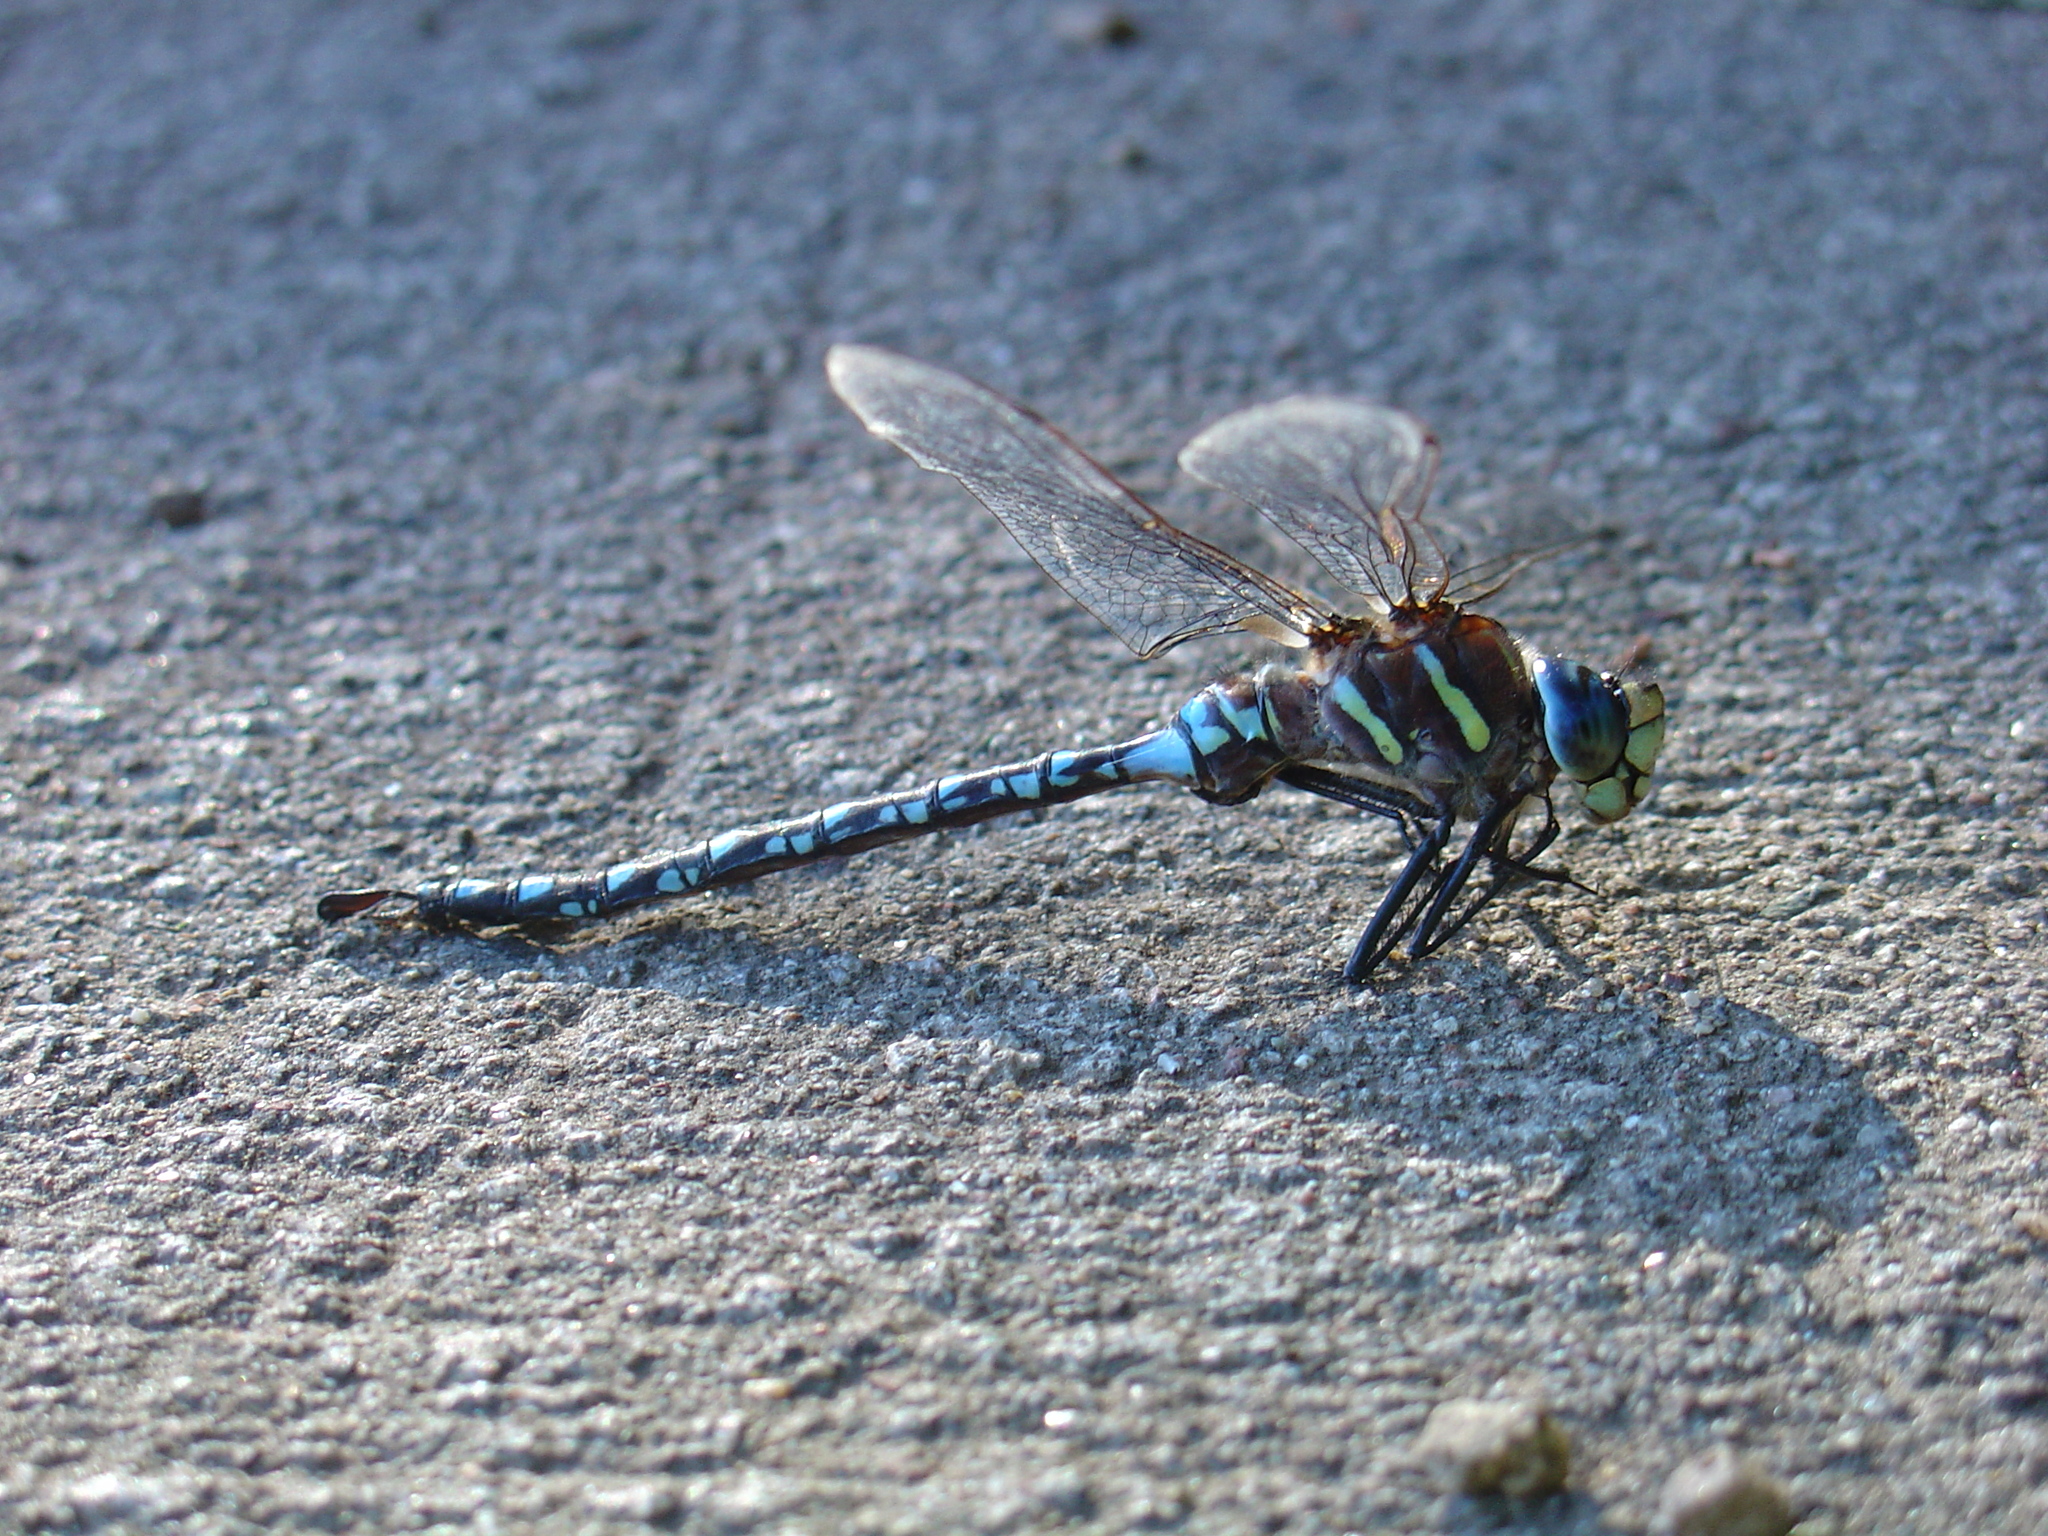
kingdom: Animalia
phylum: Arthropoda
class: Insecta
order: Odonata
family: Aeshnidae
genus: Aeshna
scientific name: Aeshna palmata
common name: Paddle-tailed darner
